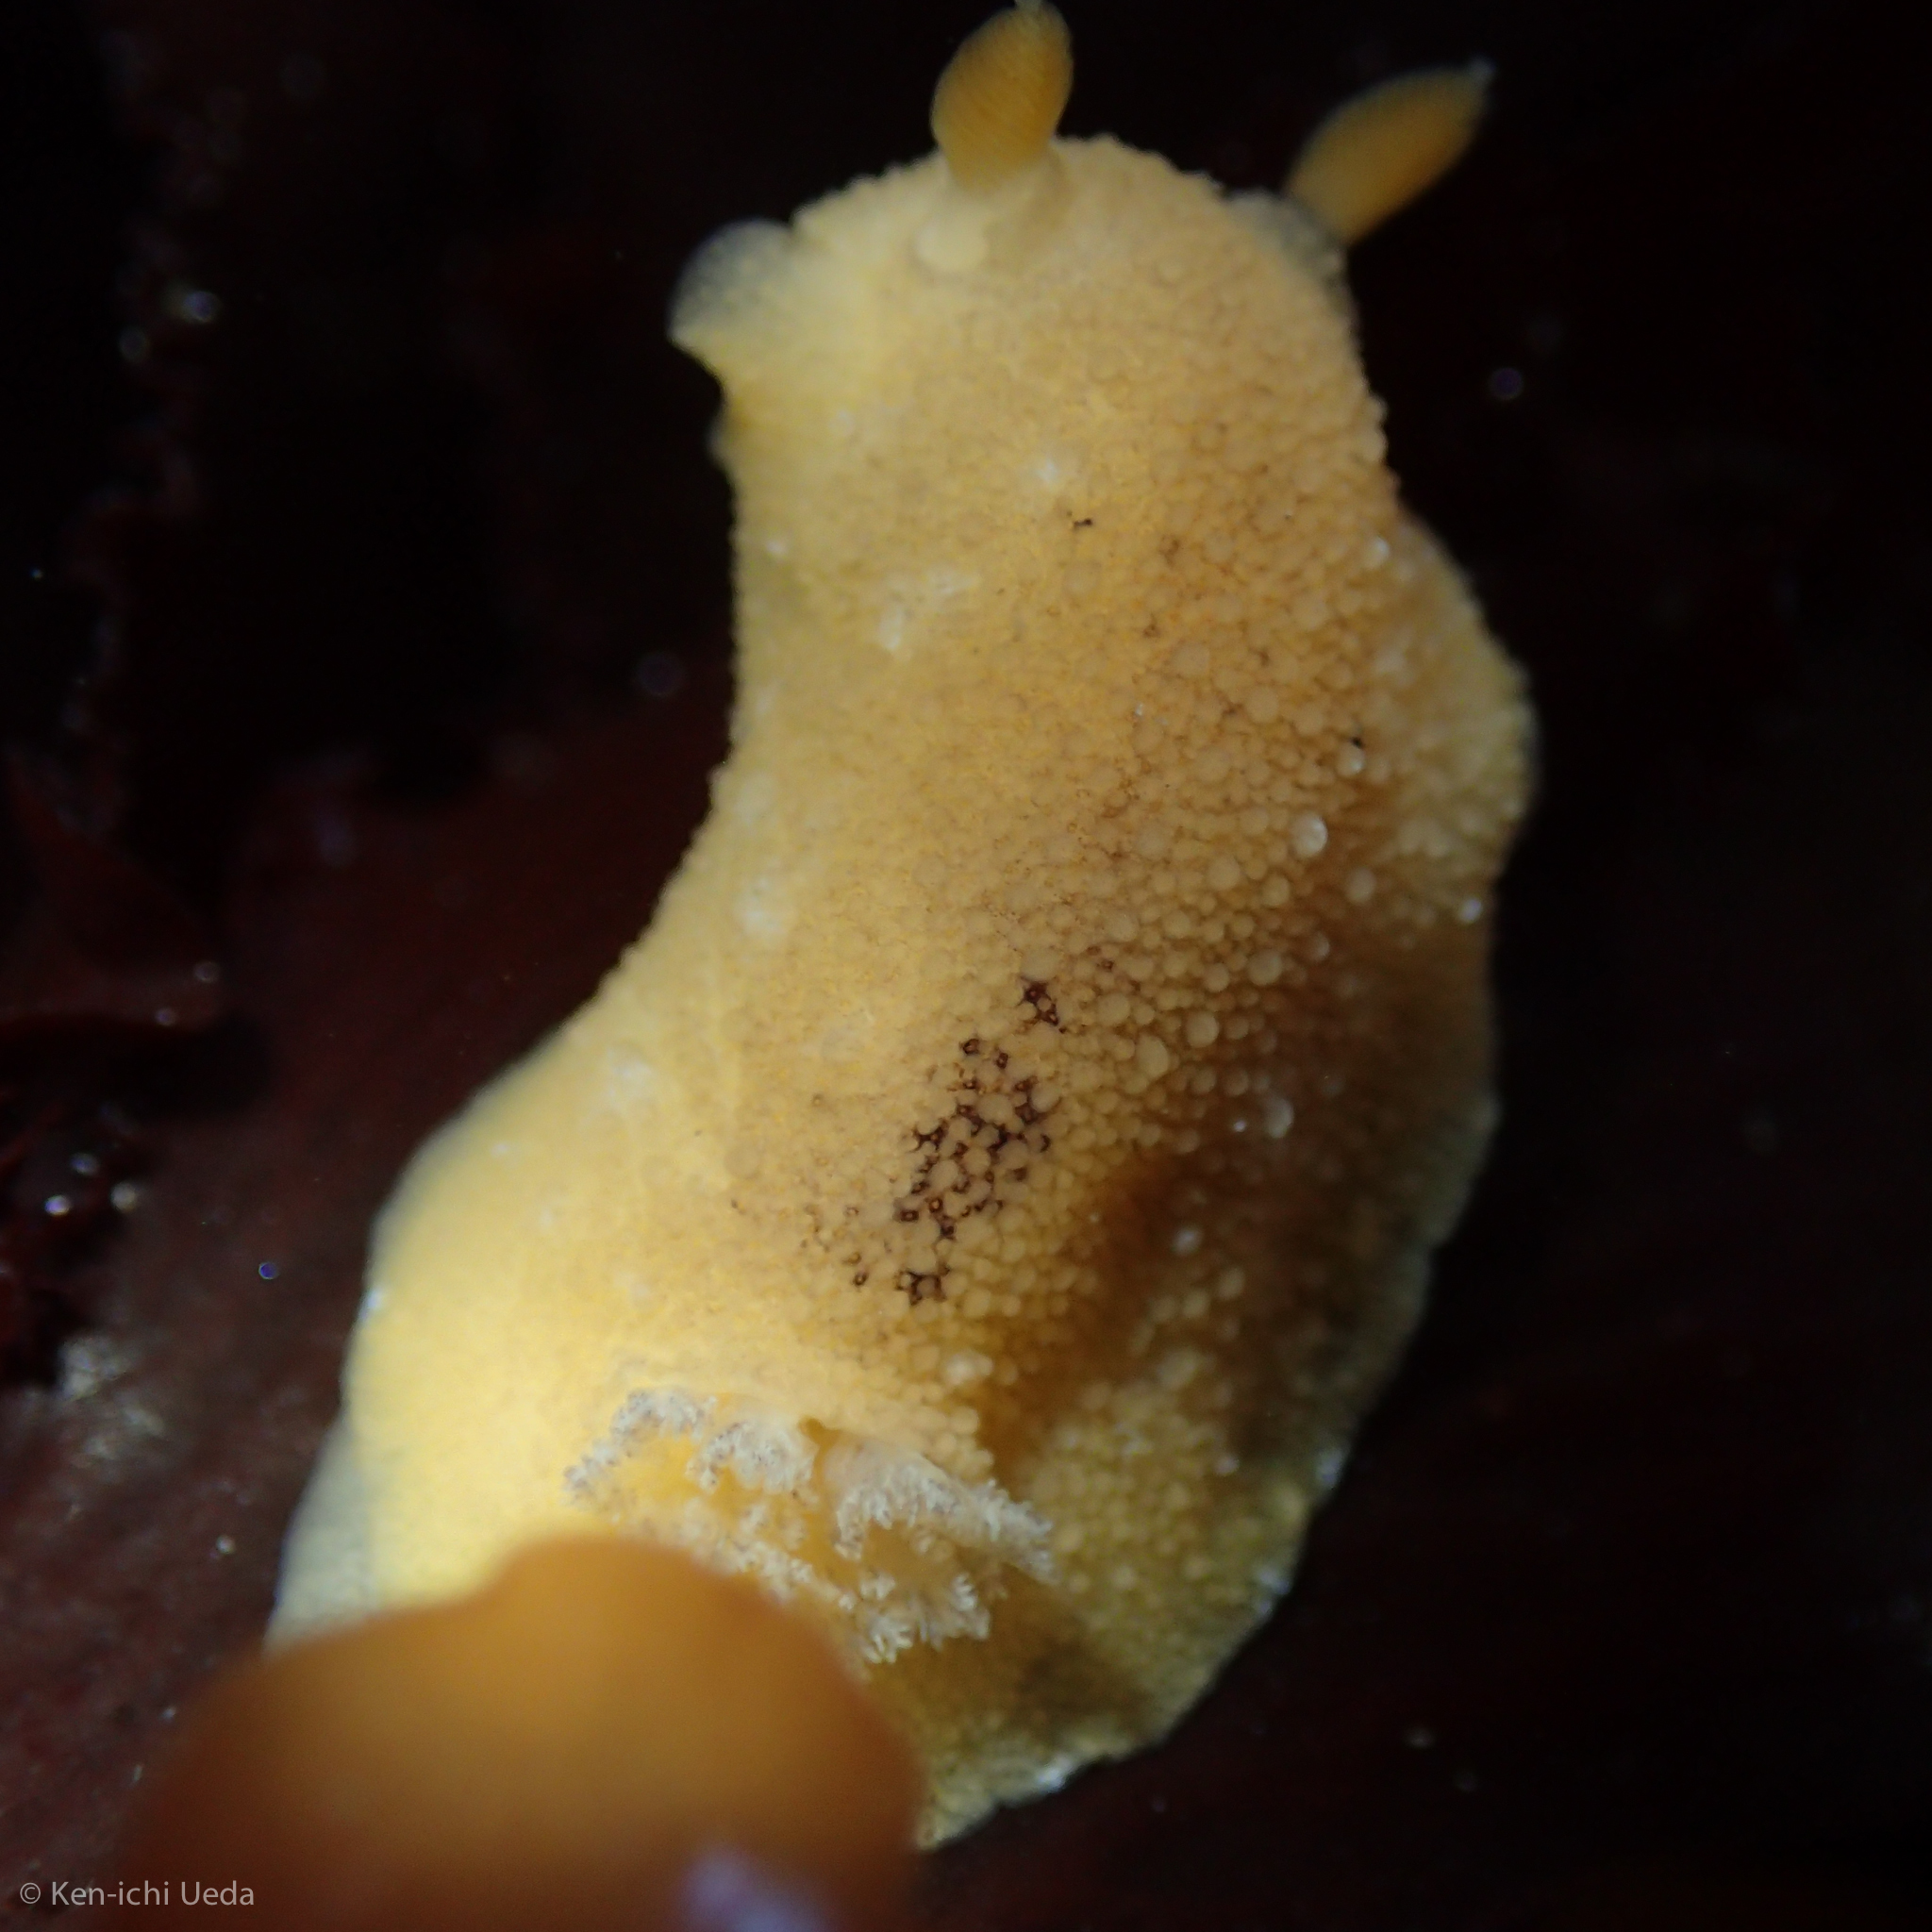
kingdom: Animalia
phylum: Mollusca
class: Gastropoda
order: Nudibranchia
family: Discodorididae
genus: Geitodoris
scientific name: Geitodoris heathi
